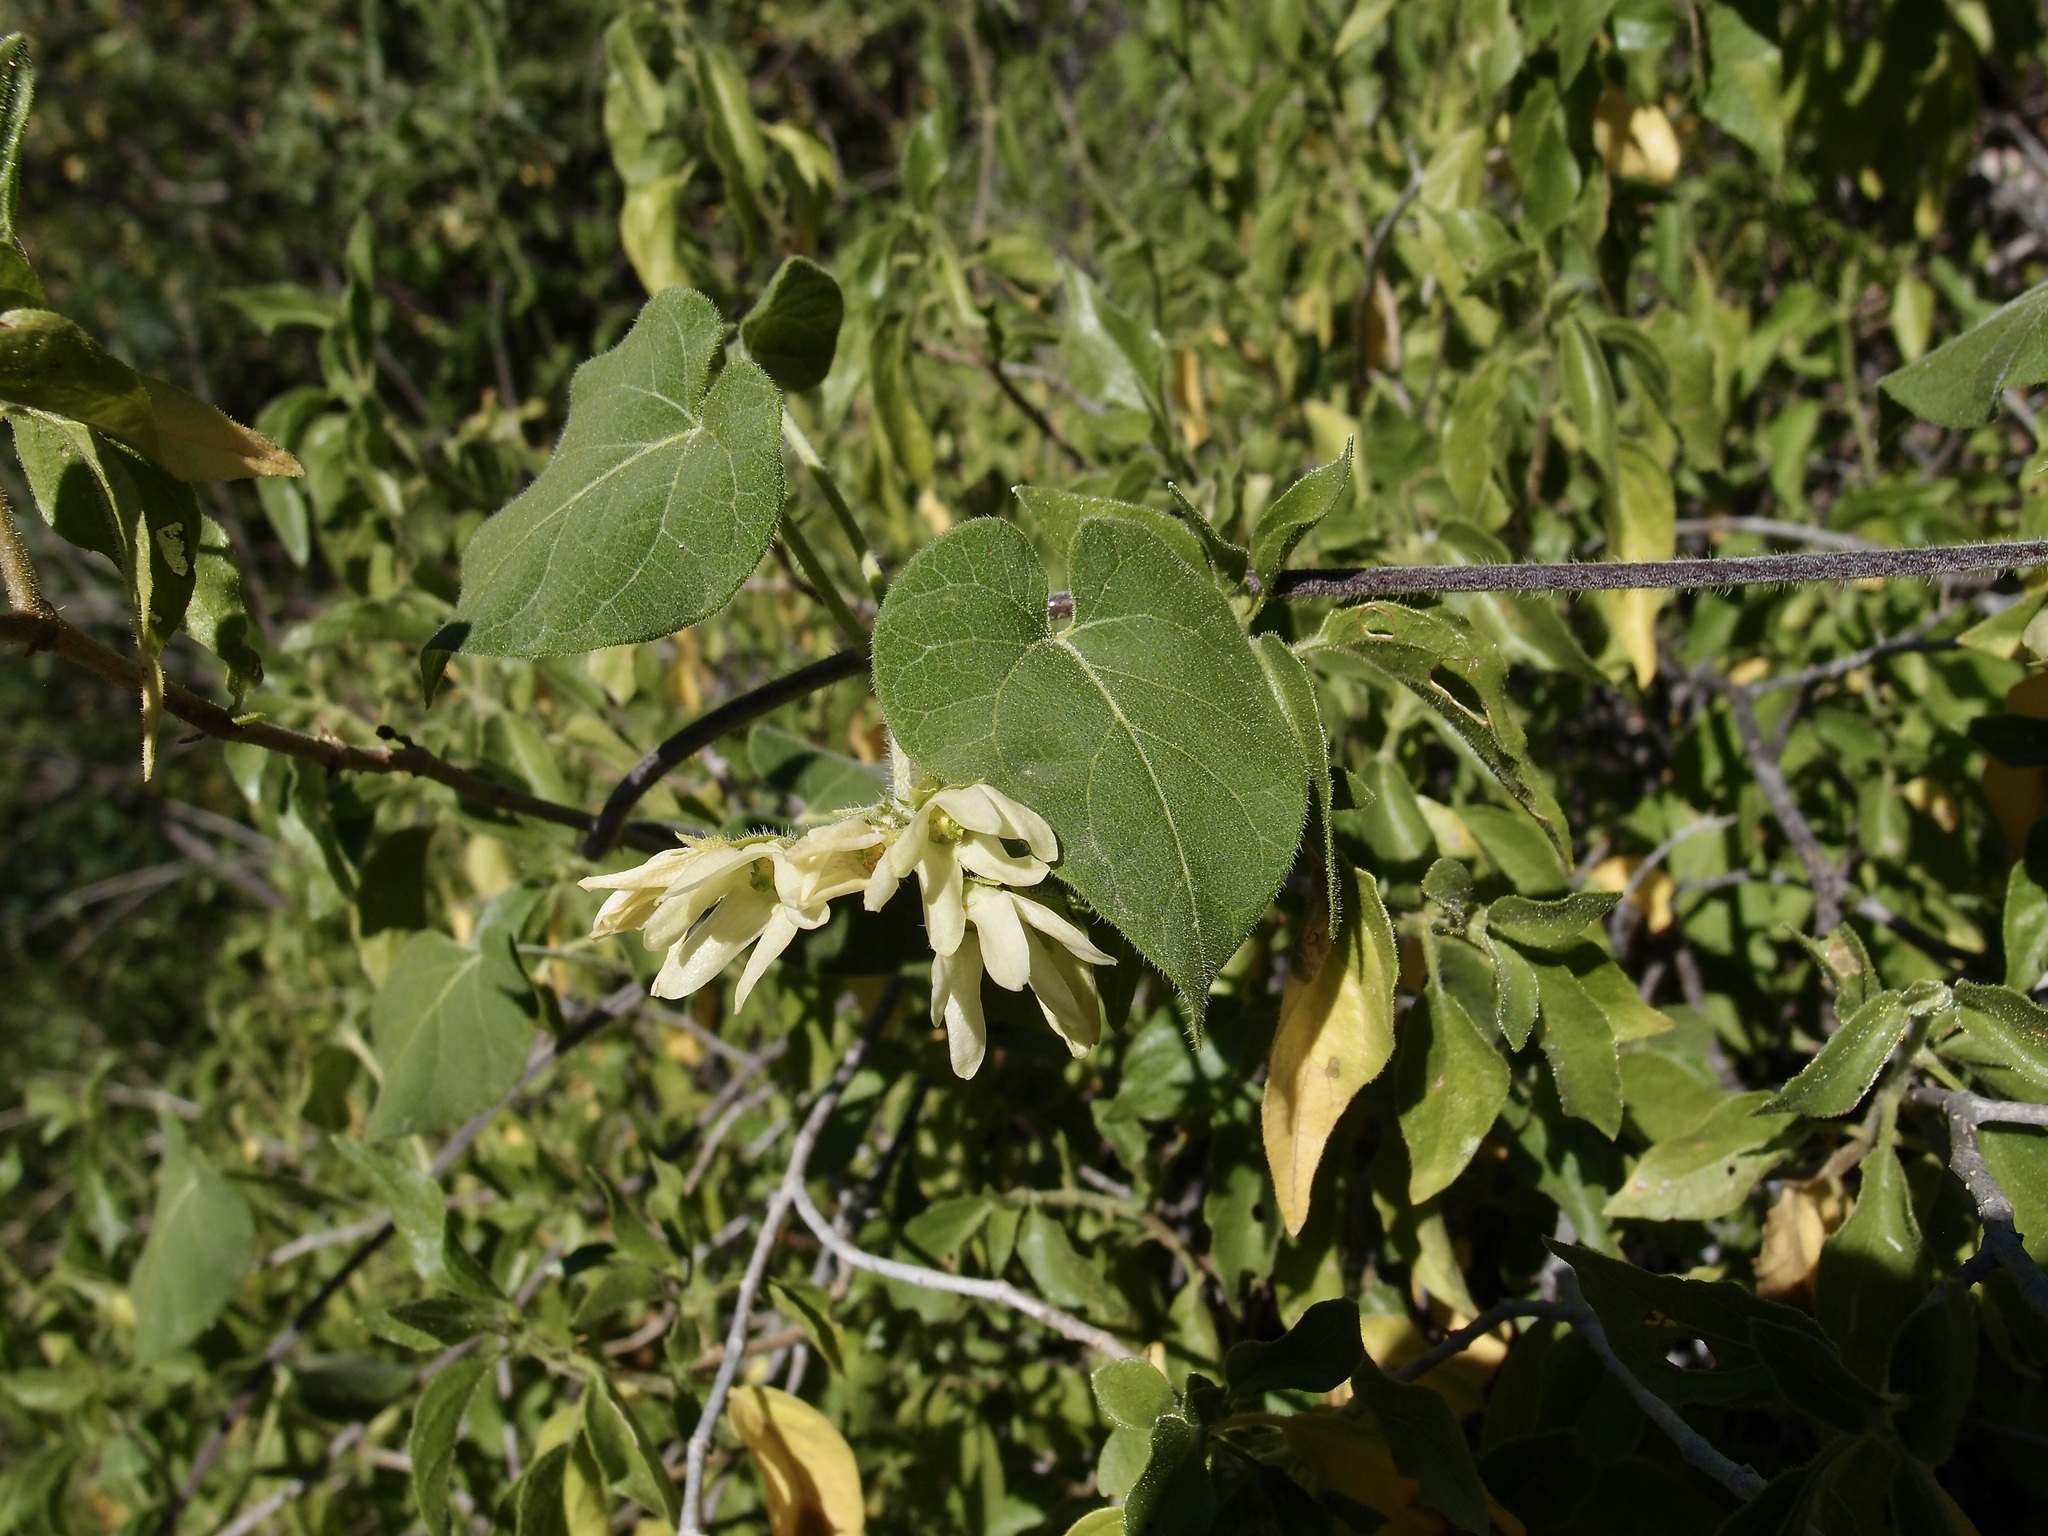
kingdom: Plantae
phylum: Tracheophyta
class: Magnoliopsida
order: Gentianales
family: Apocynaceae
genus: Polystemma
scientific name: Polystemma cordifolium
